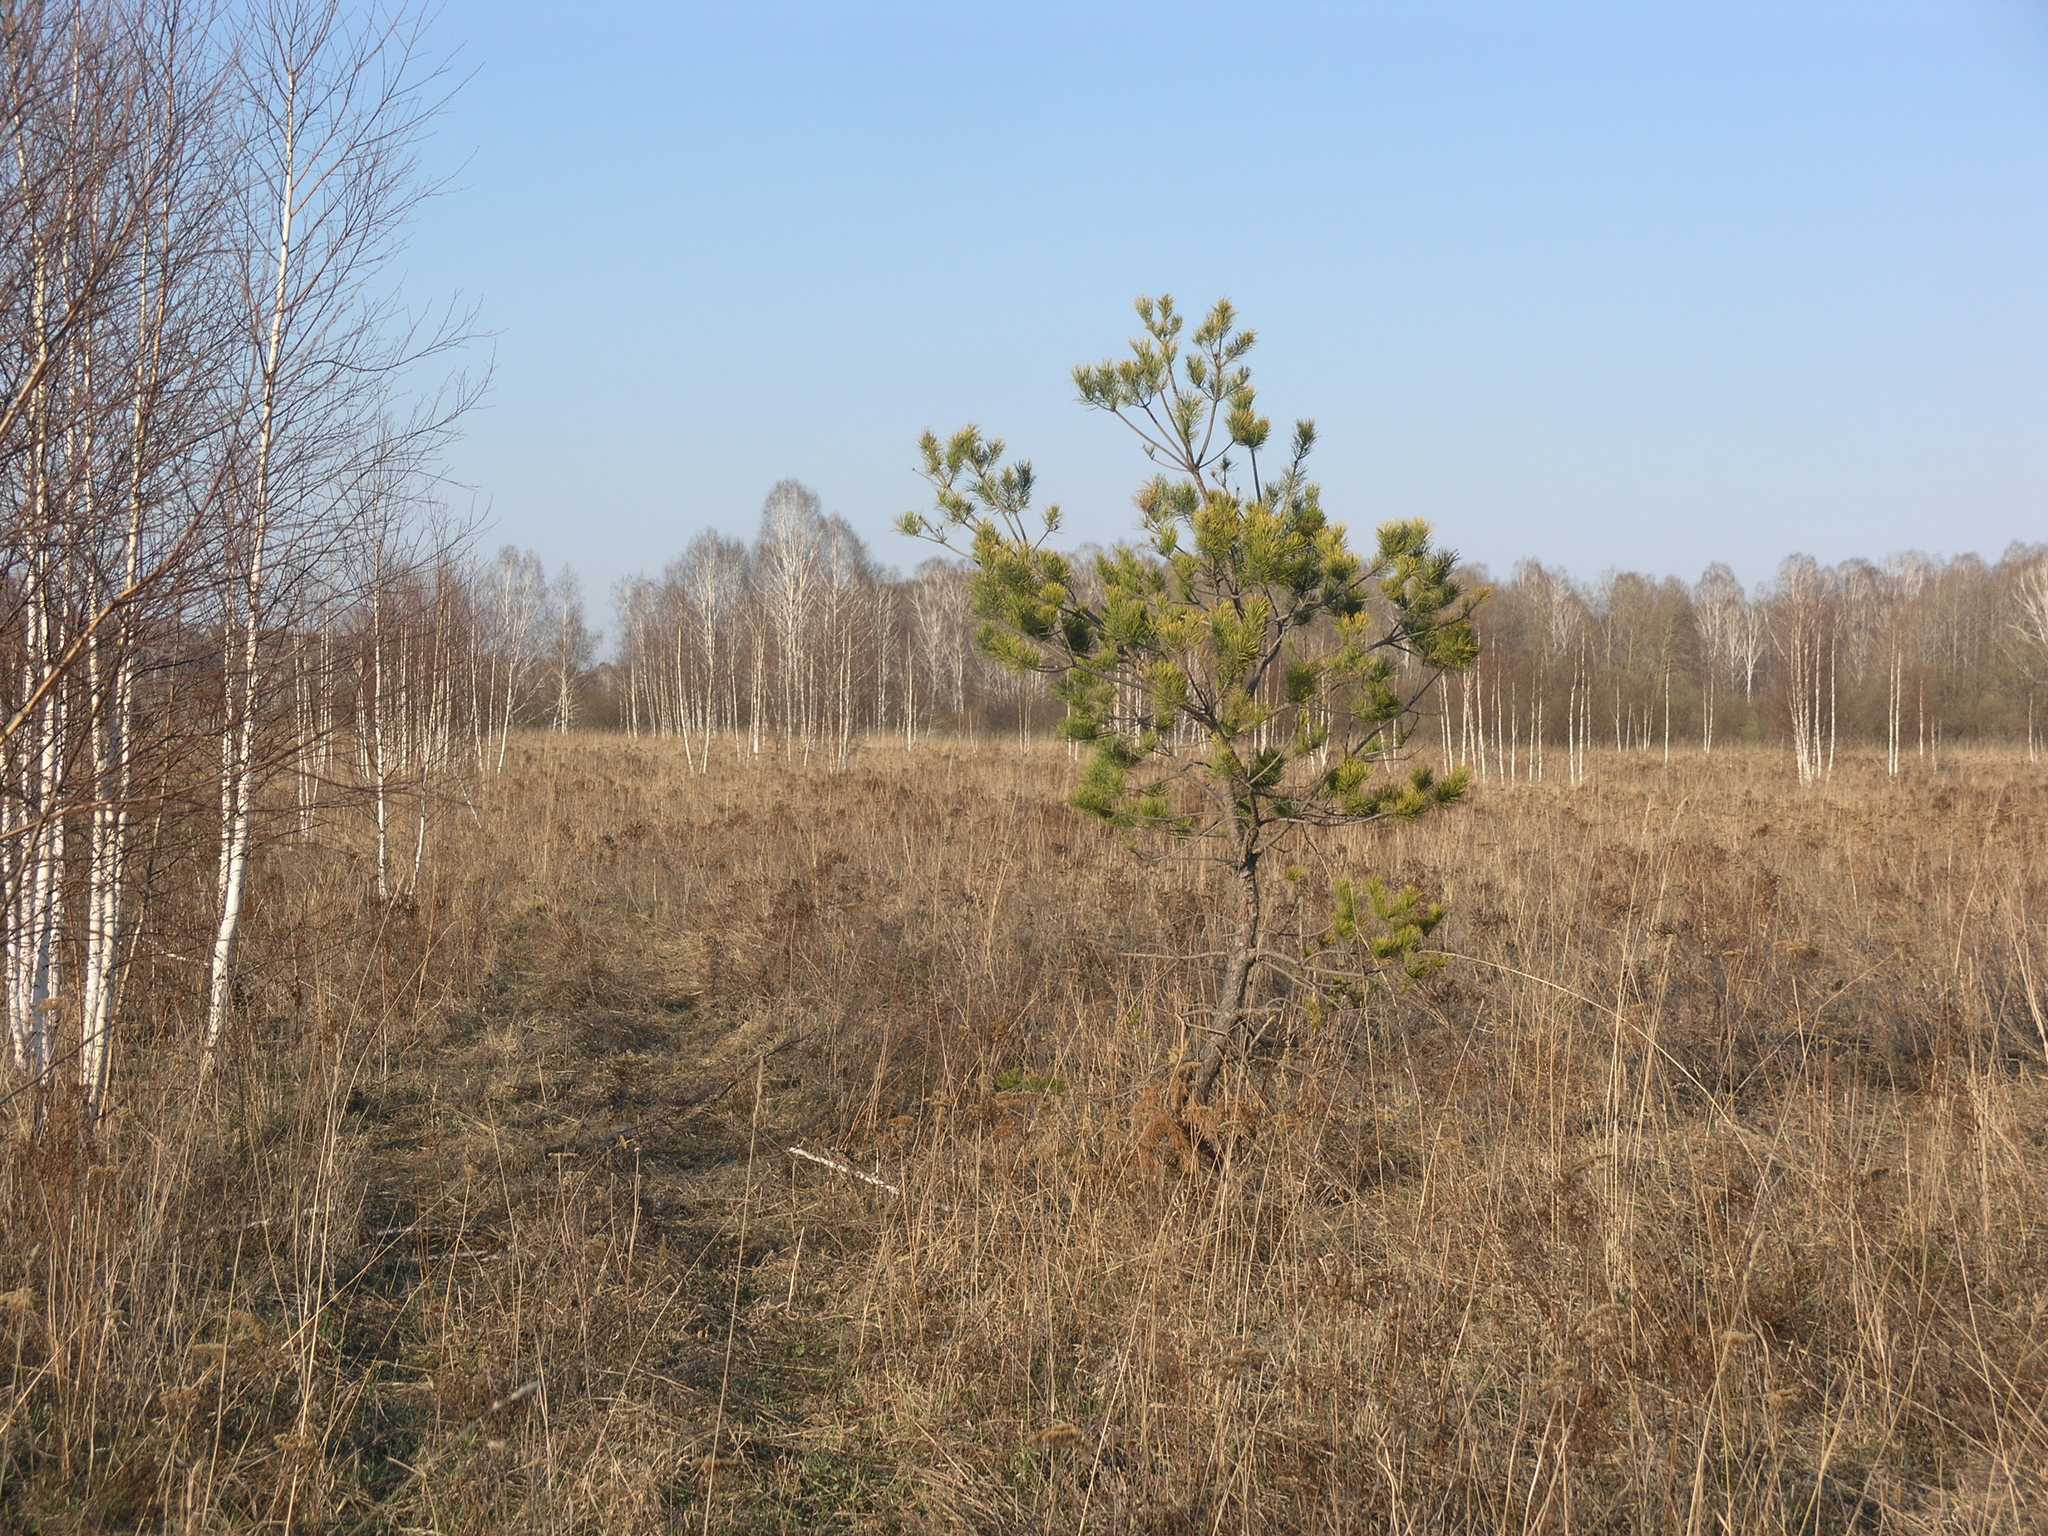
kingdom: Plantae
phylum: Tracheophyta
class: Pinopsida
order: Pinales
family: Pinaceae
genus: Pinus
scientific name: Pinus sylvestris
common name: Scots pine
